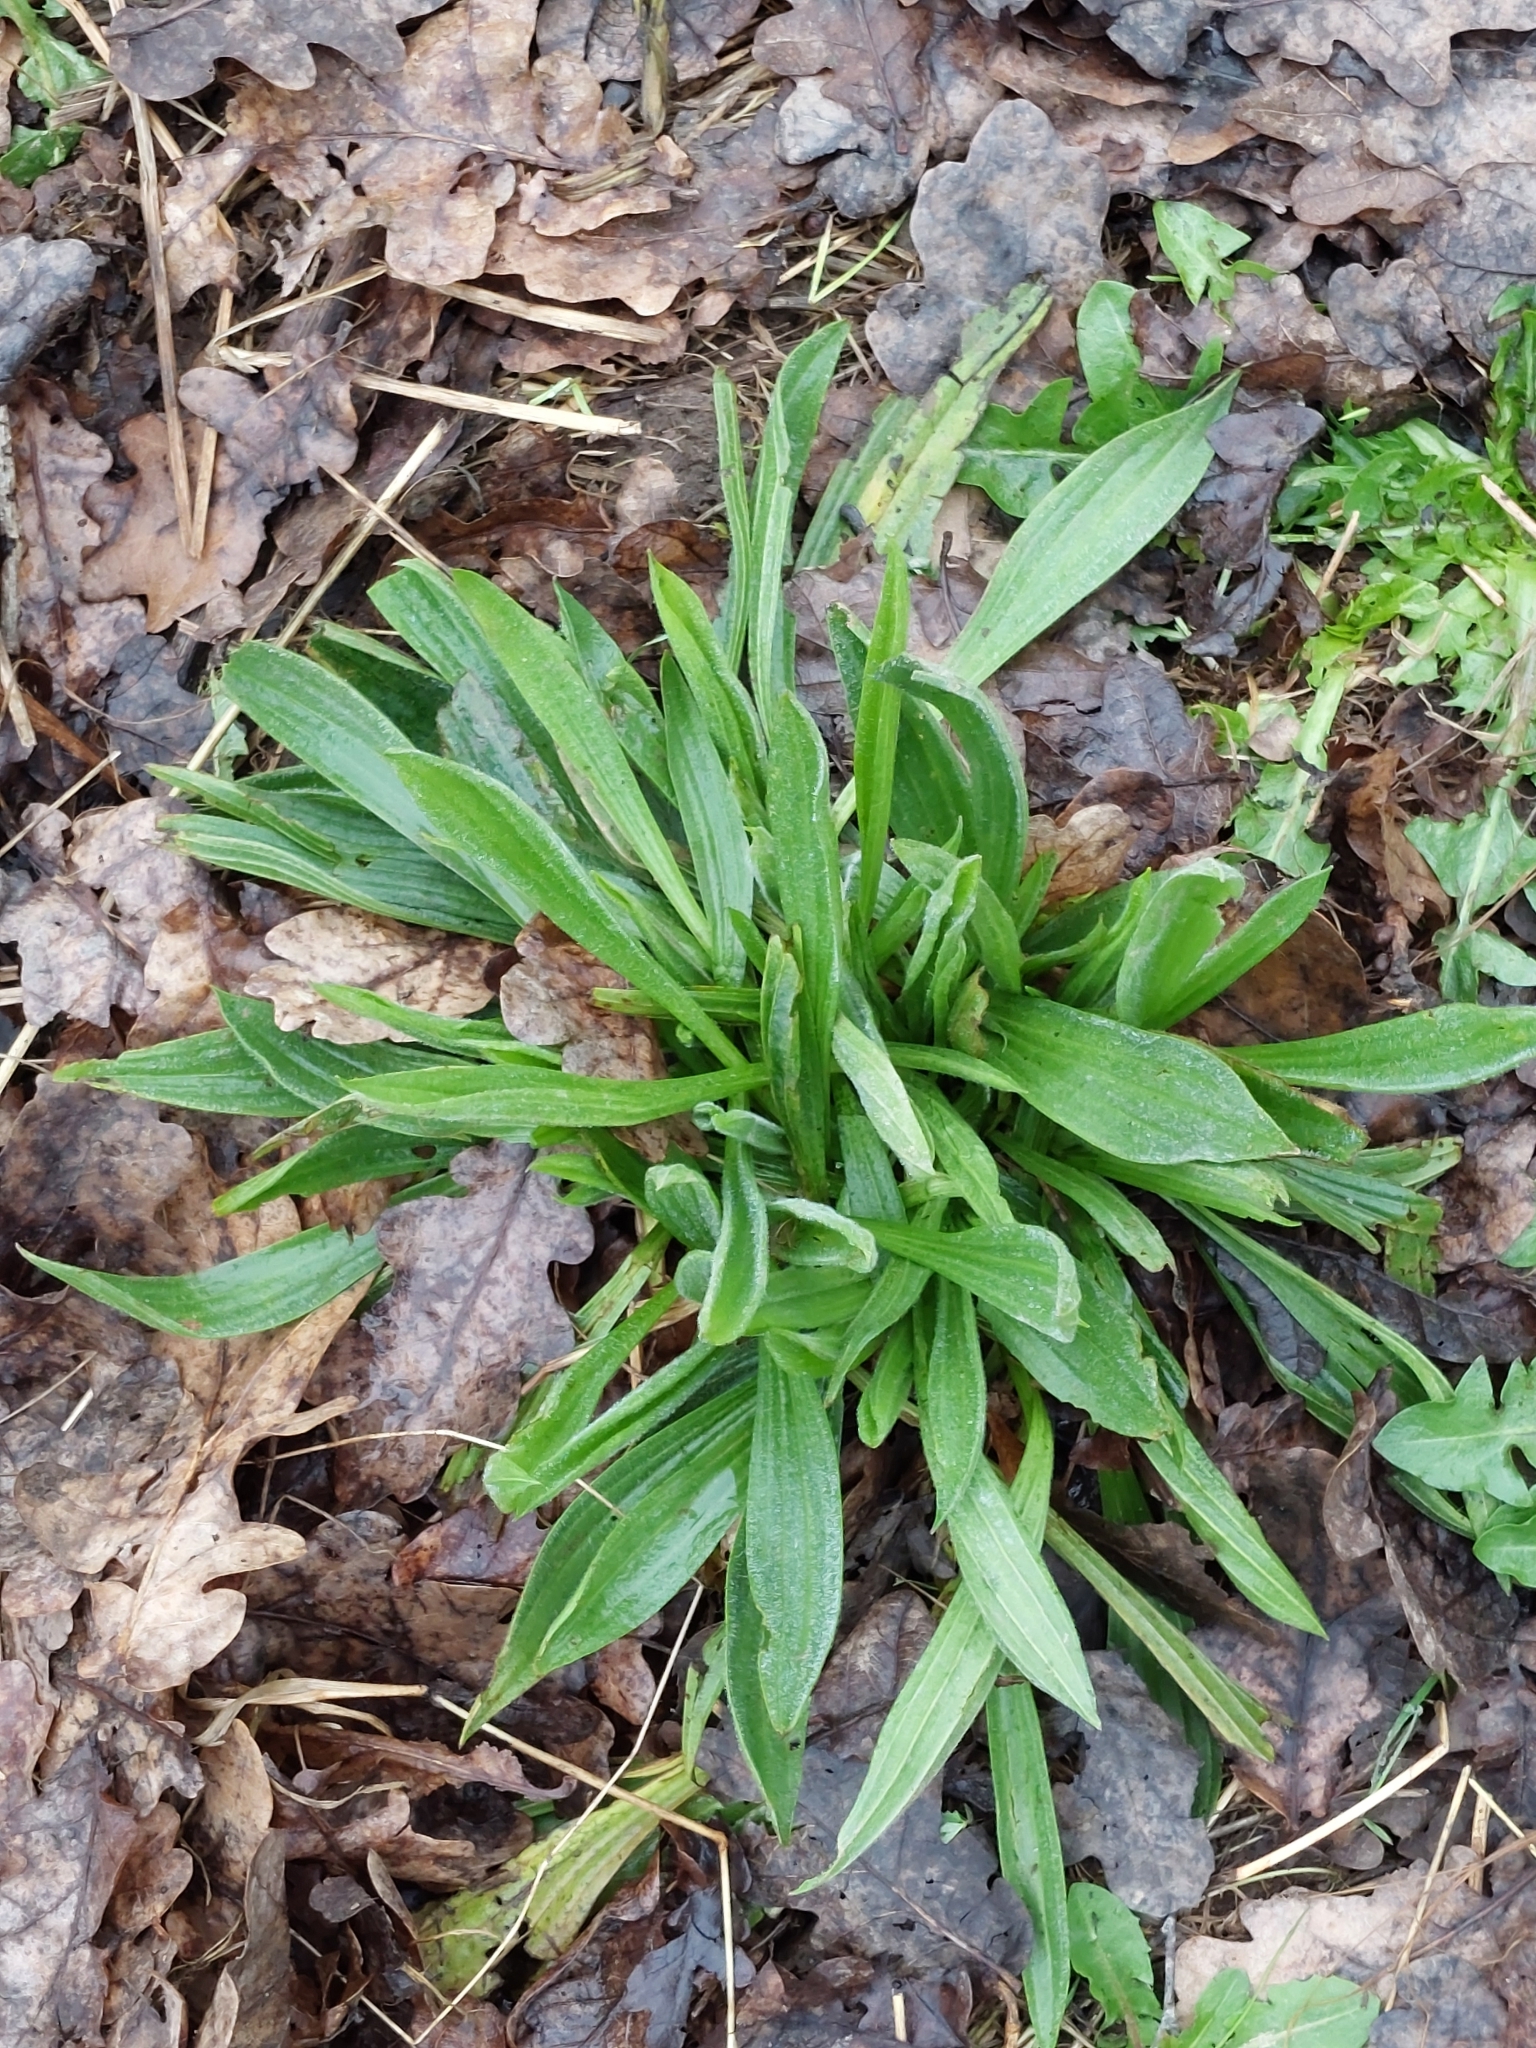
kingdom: Plantae
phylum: Tracheophyta
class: Magnoliopsida
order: Lamiales
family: Plantaginaceae
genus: Plantago
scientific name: Plantago lanceolata
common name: Ribwort plantain
